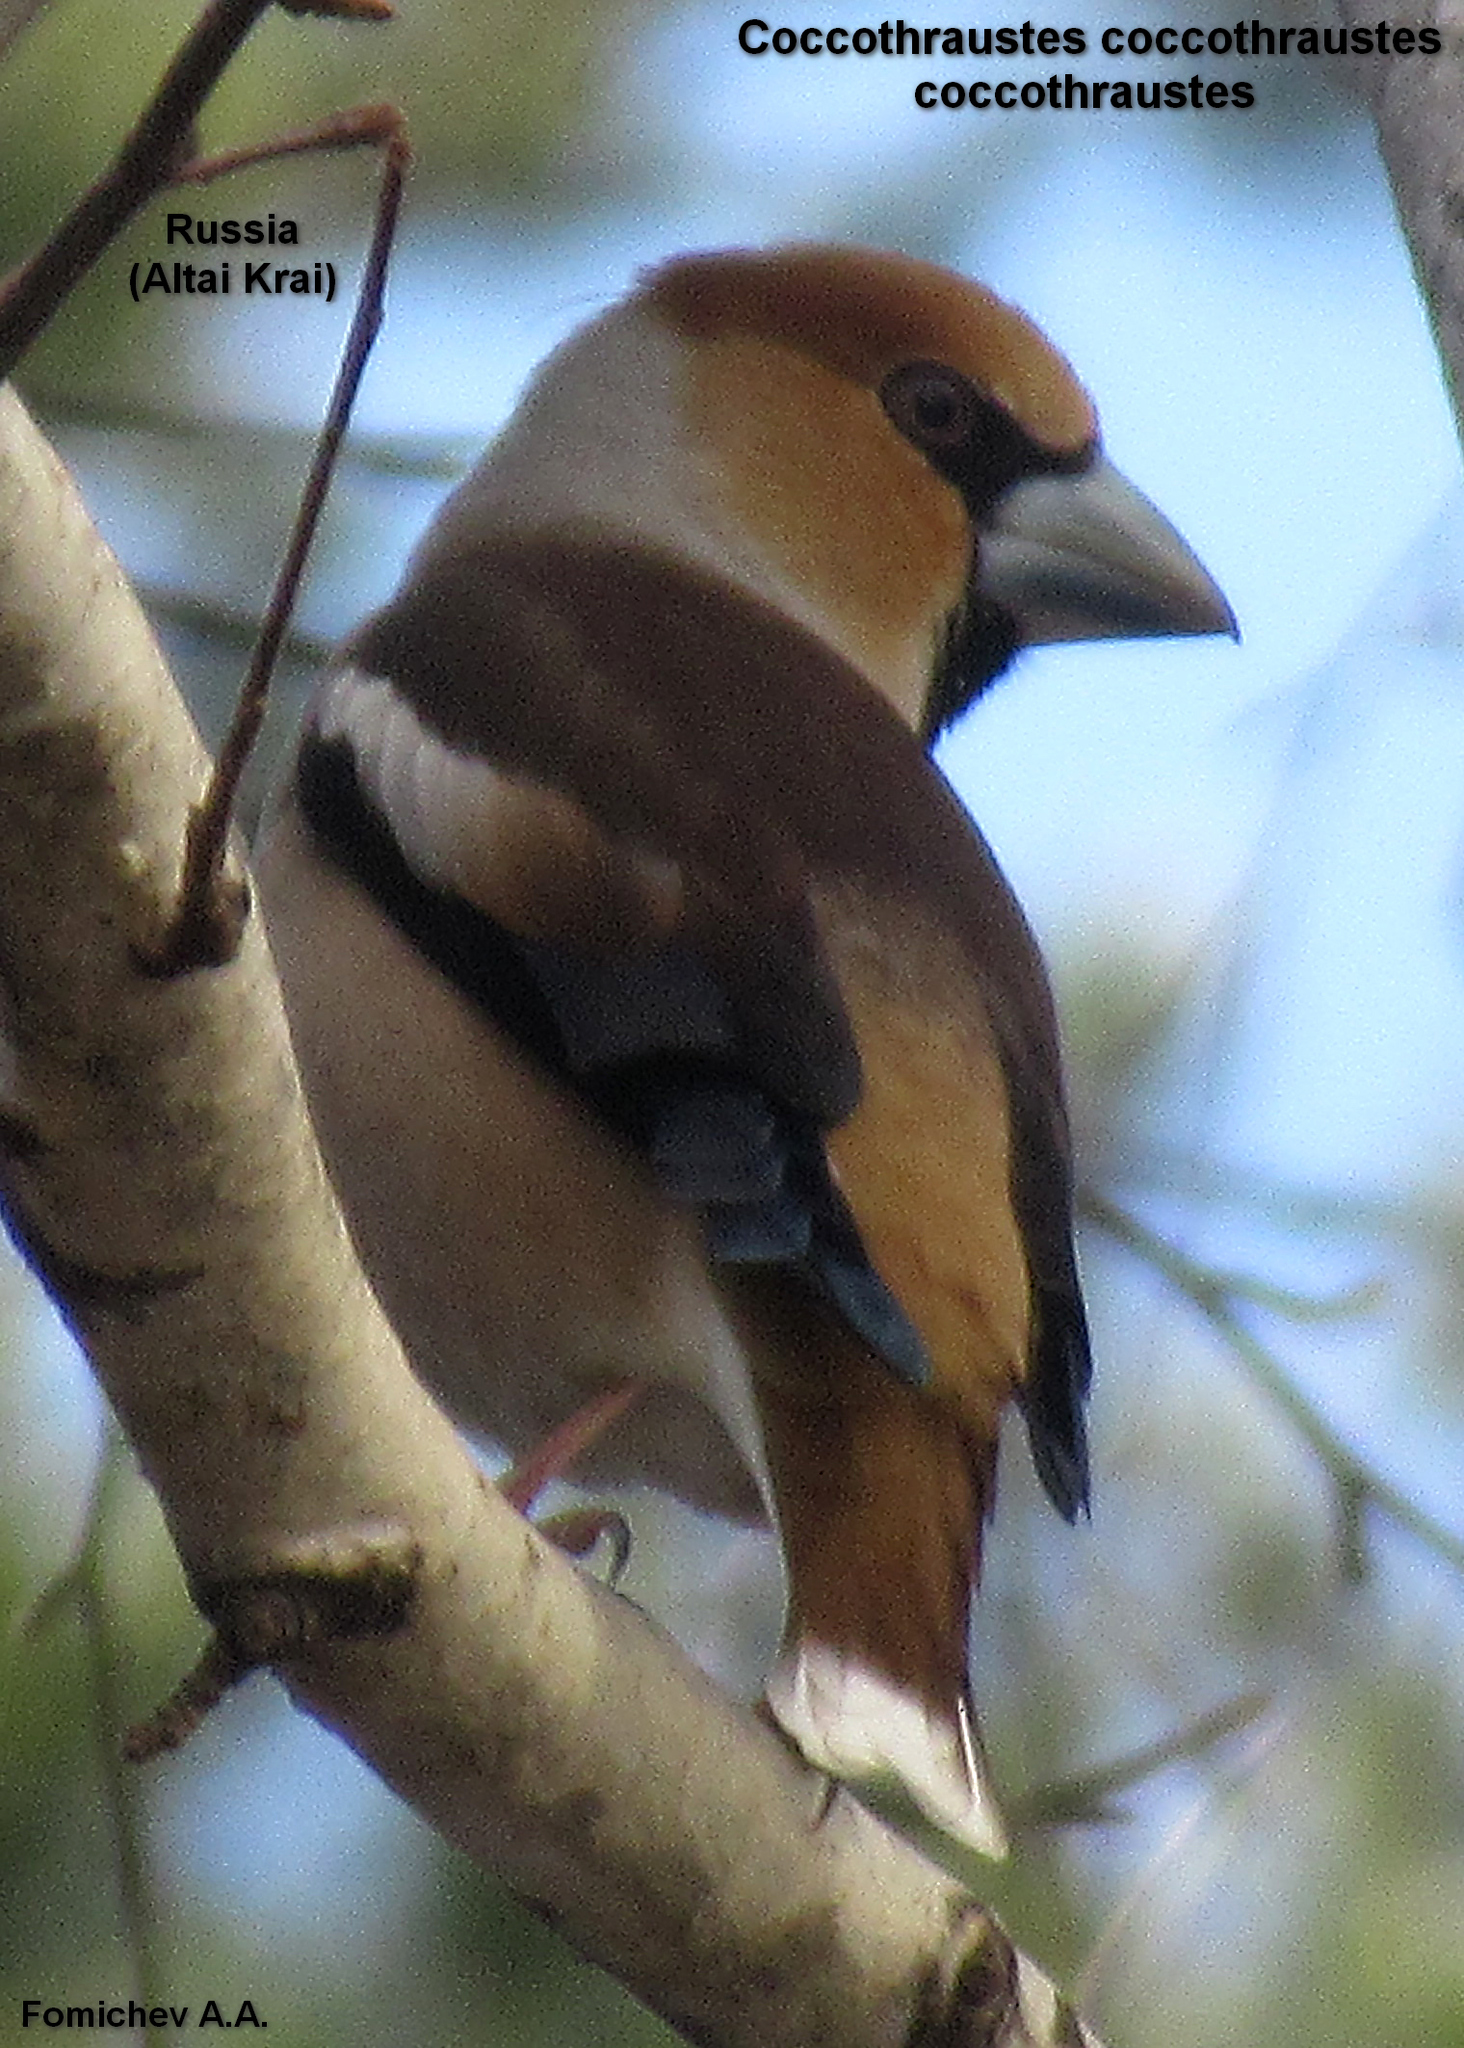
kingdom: Animalia
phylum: Chordata
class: Aves
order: Passeriformes
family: Fringillidae
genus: Coccothraustes
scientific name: Coccothraustes coccothraustes
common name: Hawfinch
